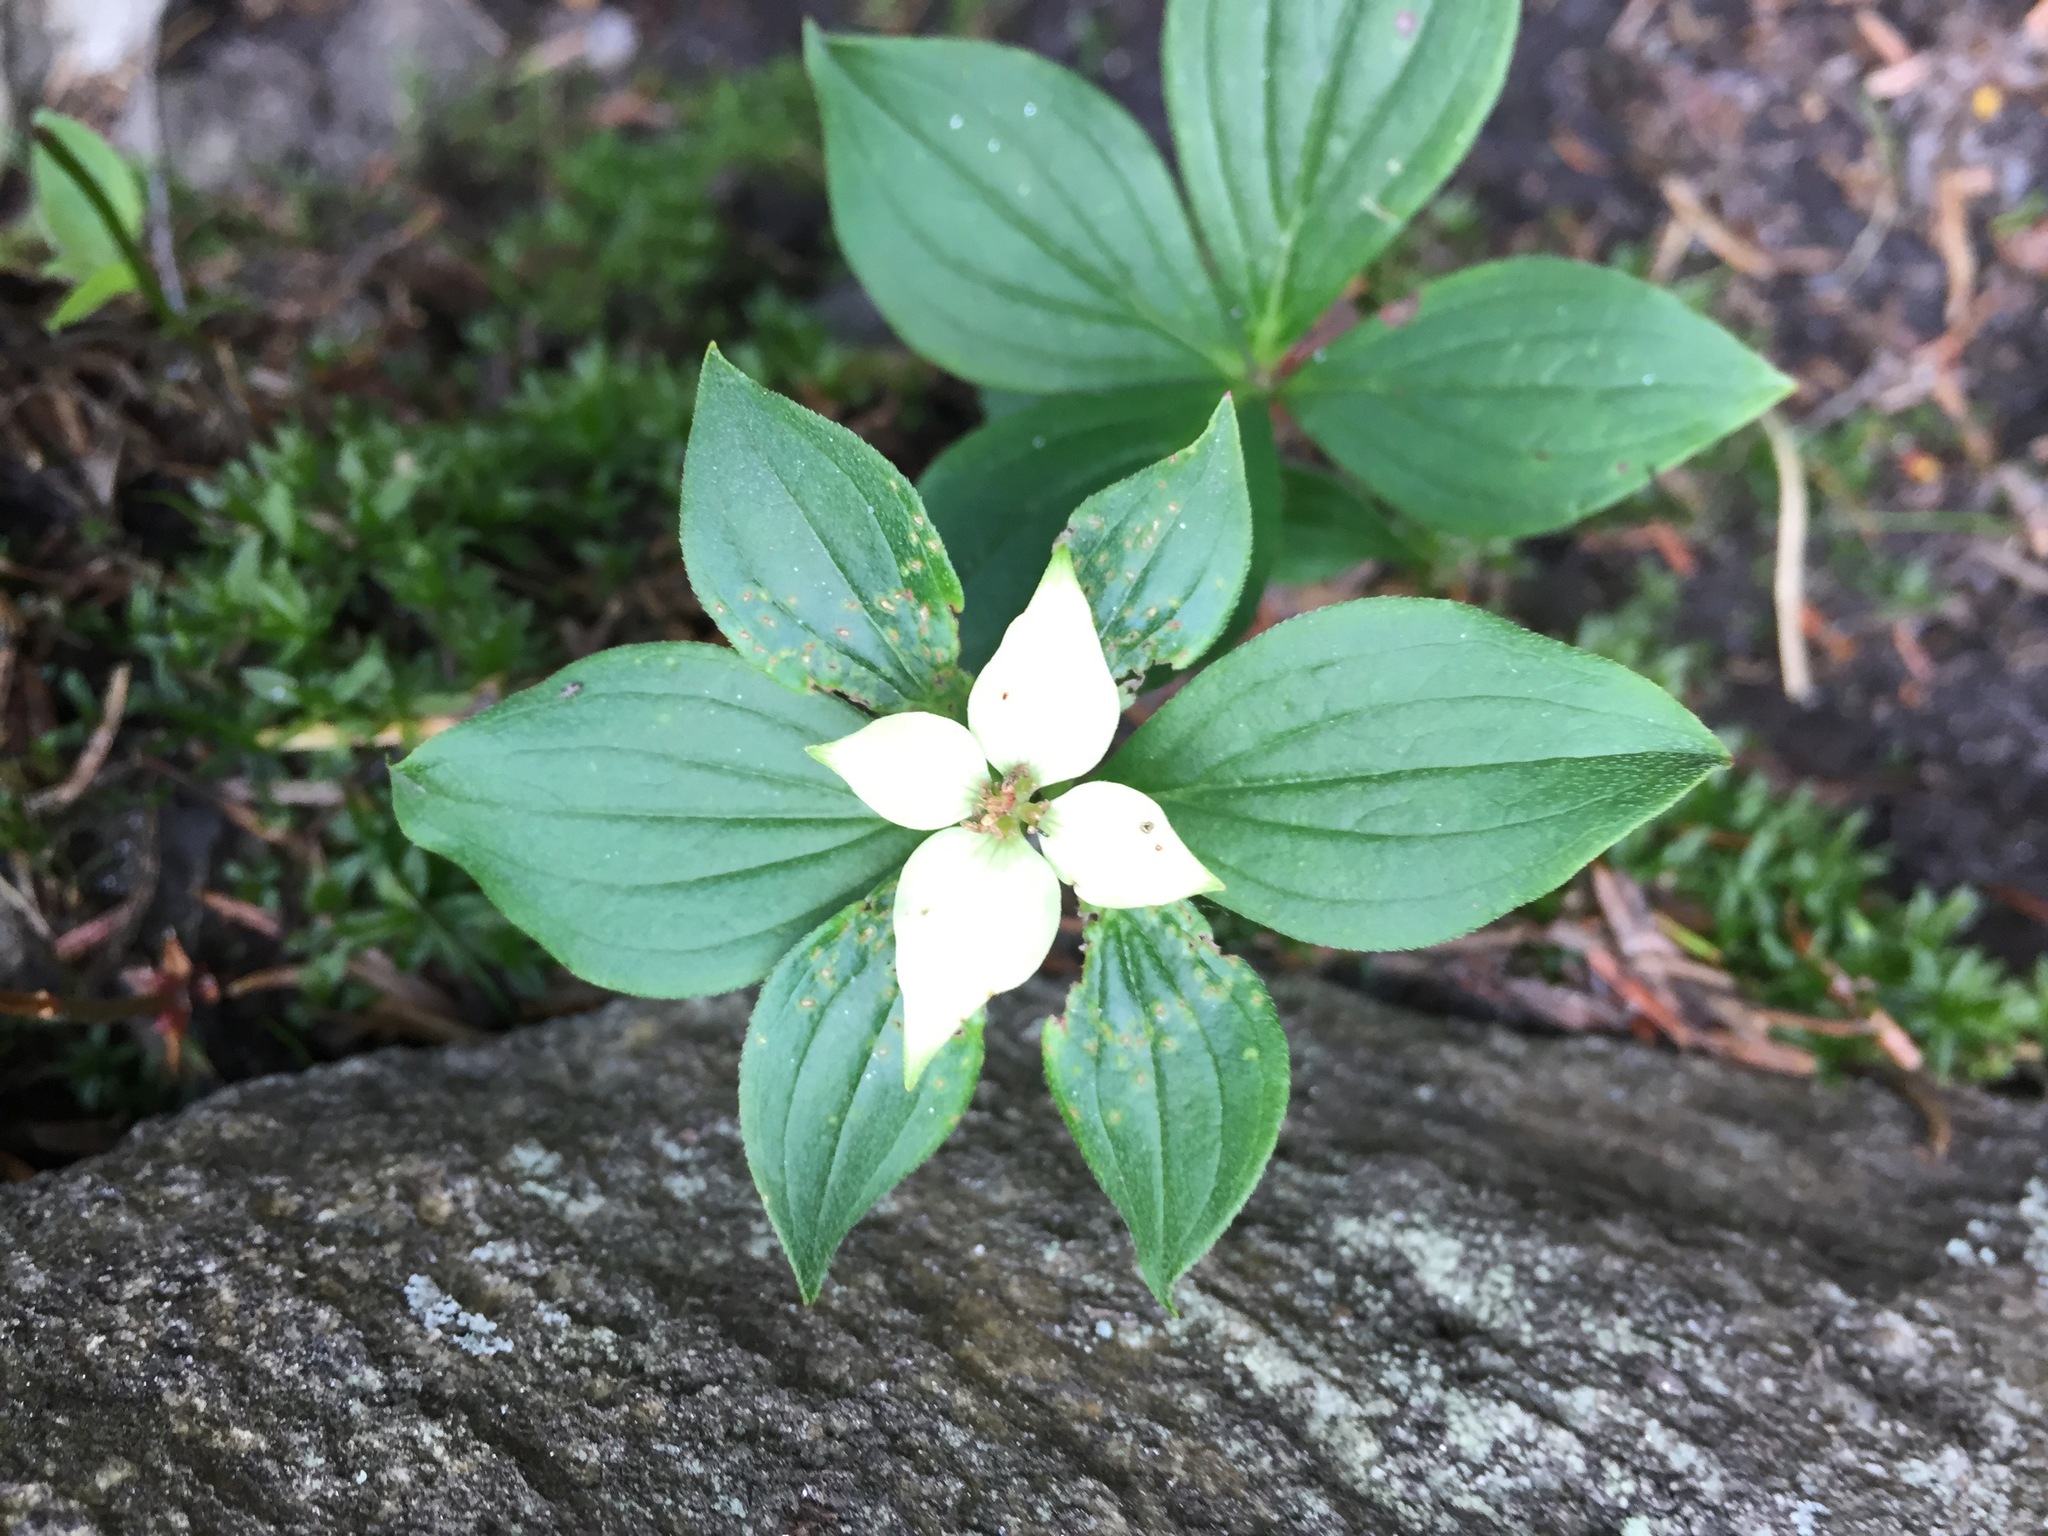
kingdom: Plantae
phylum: Tracheophyta
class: Magnoliopsida
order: Cornales
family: Cornaceae
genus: Cornus
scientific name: Cornus canadensis
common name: Creeping dogwood
